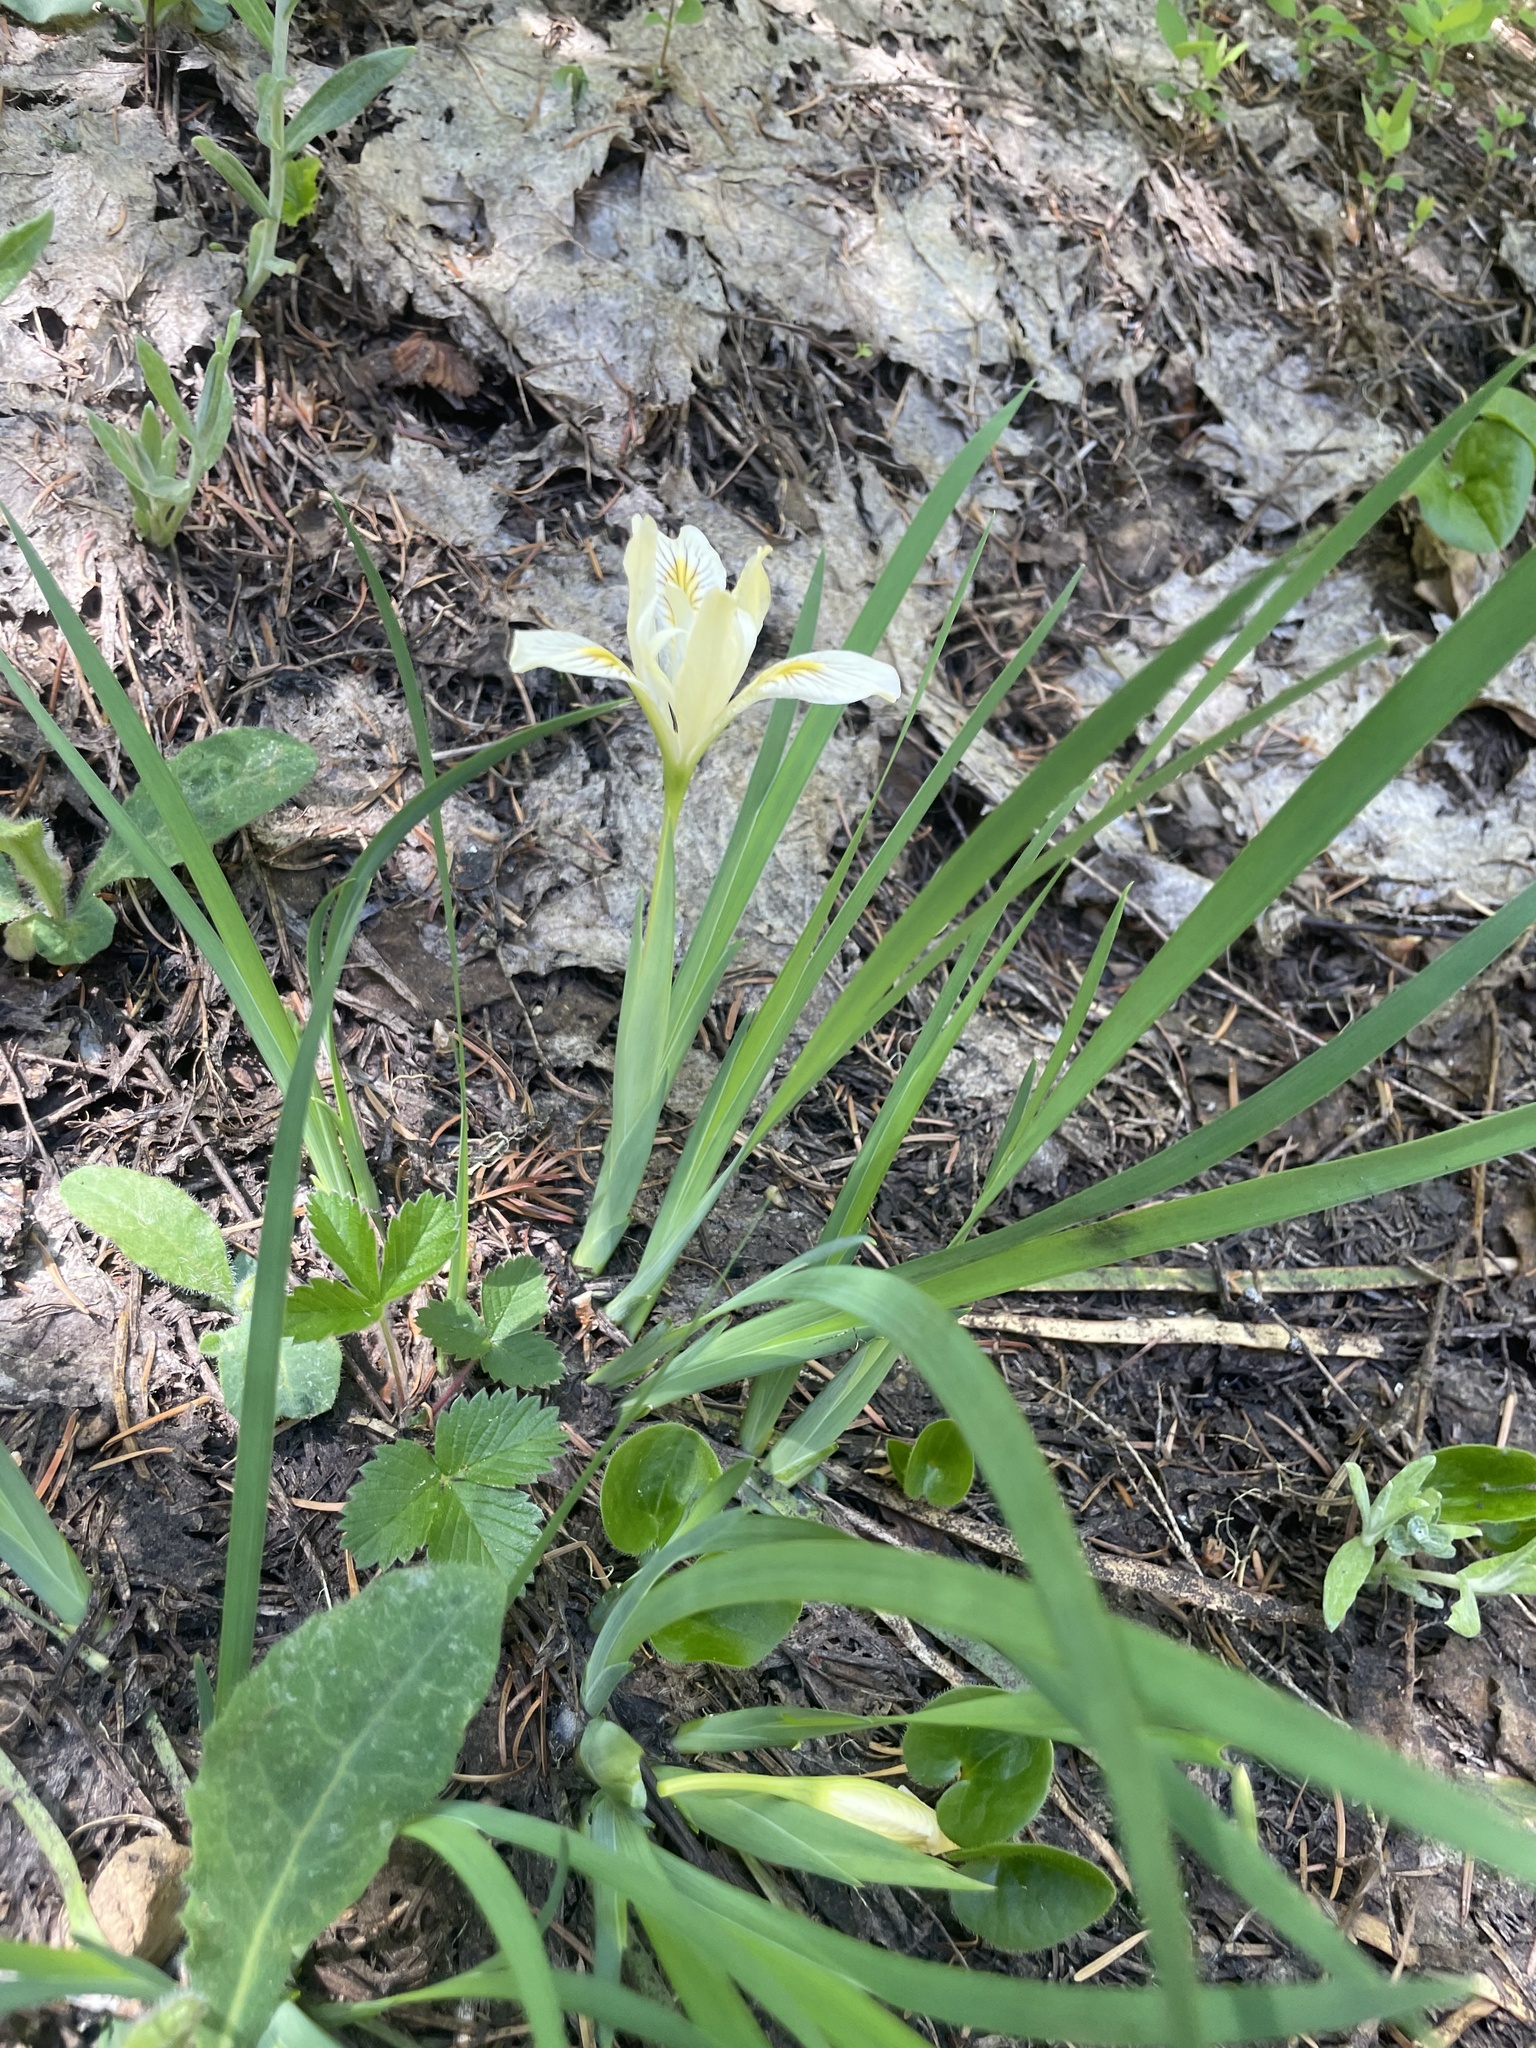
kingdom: Plantae
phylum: Tracheophyta
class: Liliopsida
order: Asparagales
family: Iridaceae
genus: Iris
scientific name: Iris chrysophylla
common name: Yellow-leaf iris
